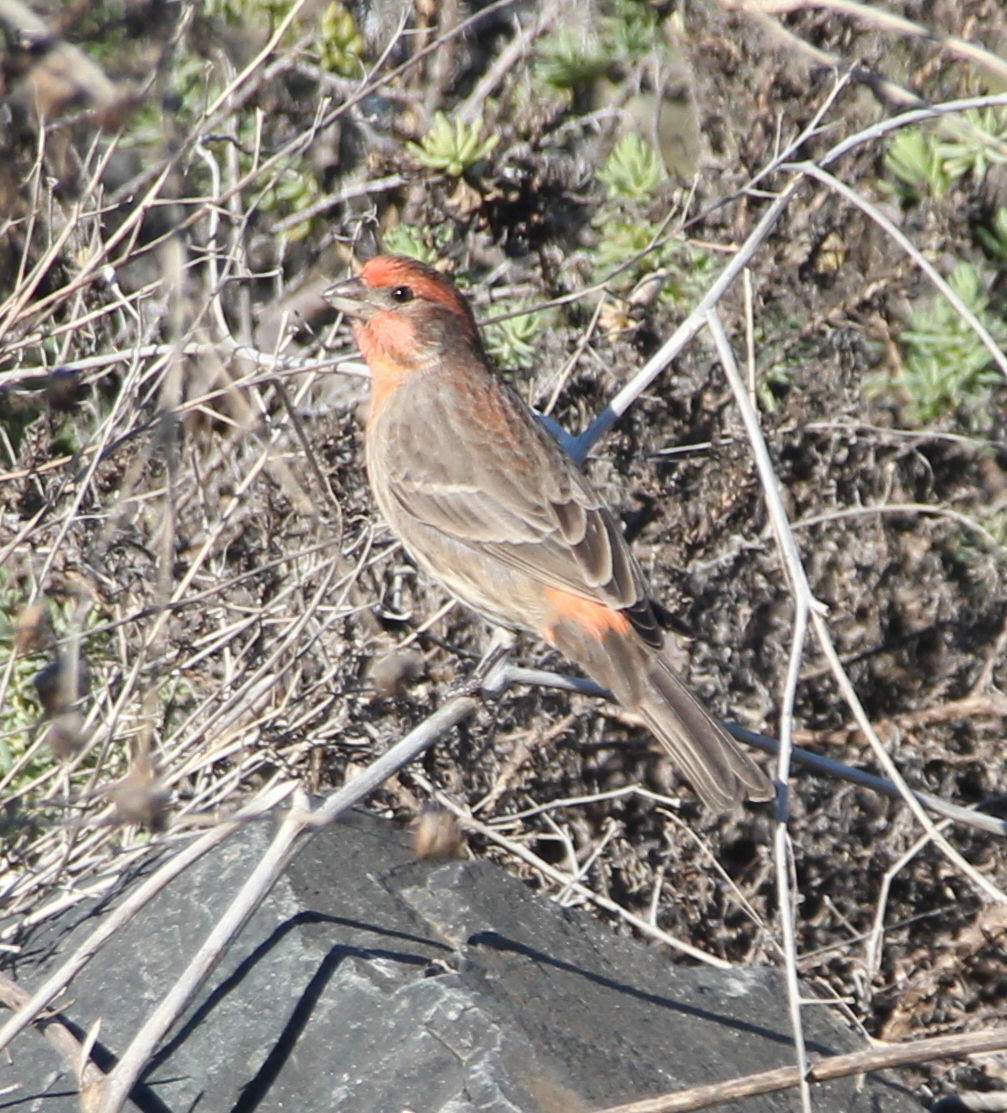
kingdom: Animalia
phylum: Chordata
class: Aves
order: Passeriformes
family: Fringillidae
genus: Haemorhous
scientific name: Haemorhous mexicanus
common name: House finch
